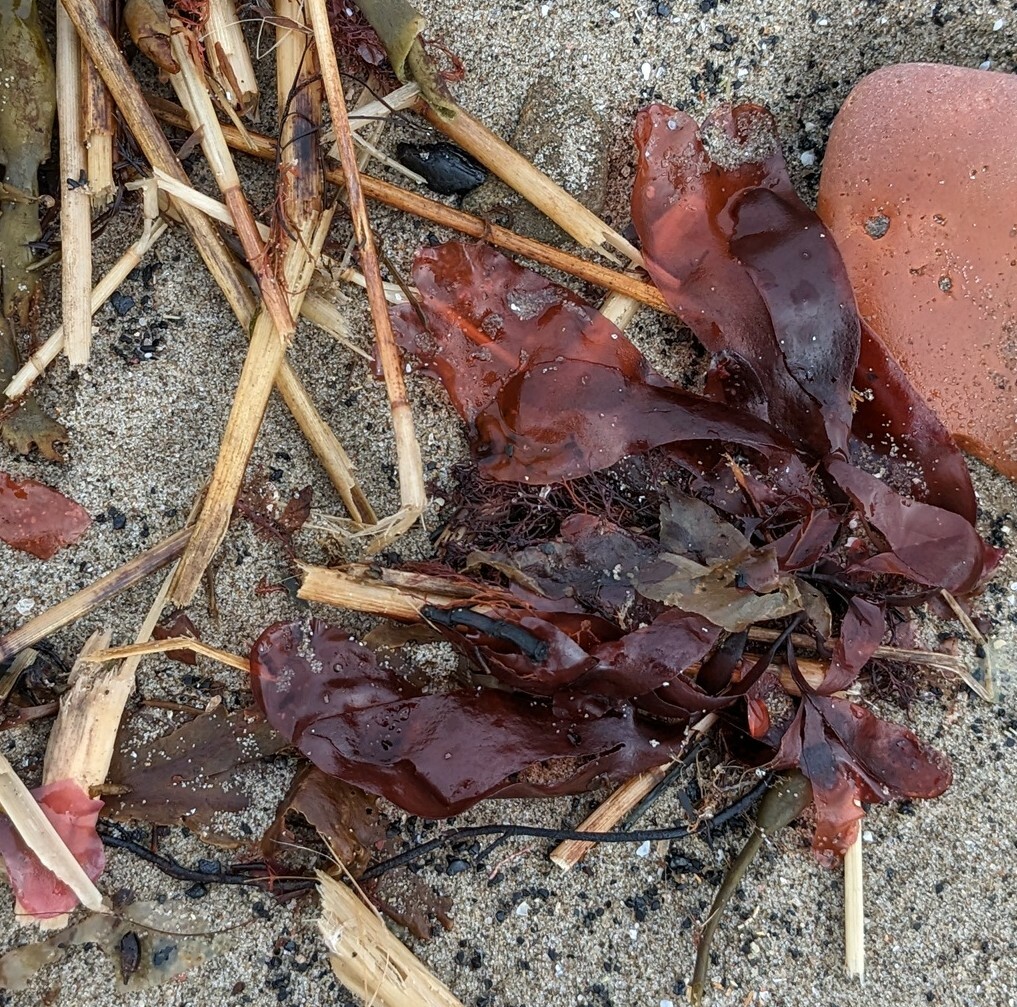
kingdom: Plantae
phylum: Rhodophyta
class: Florideophyceae
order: Palmariales
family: Palmariaceae
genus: Palmaria
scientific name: Palmaria palmata
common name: Dulse
